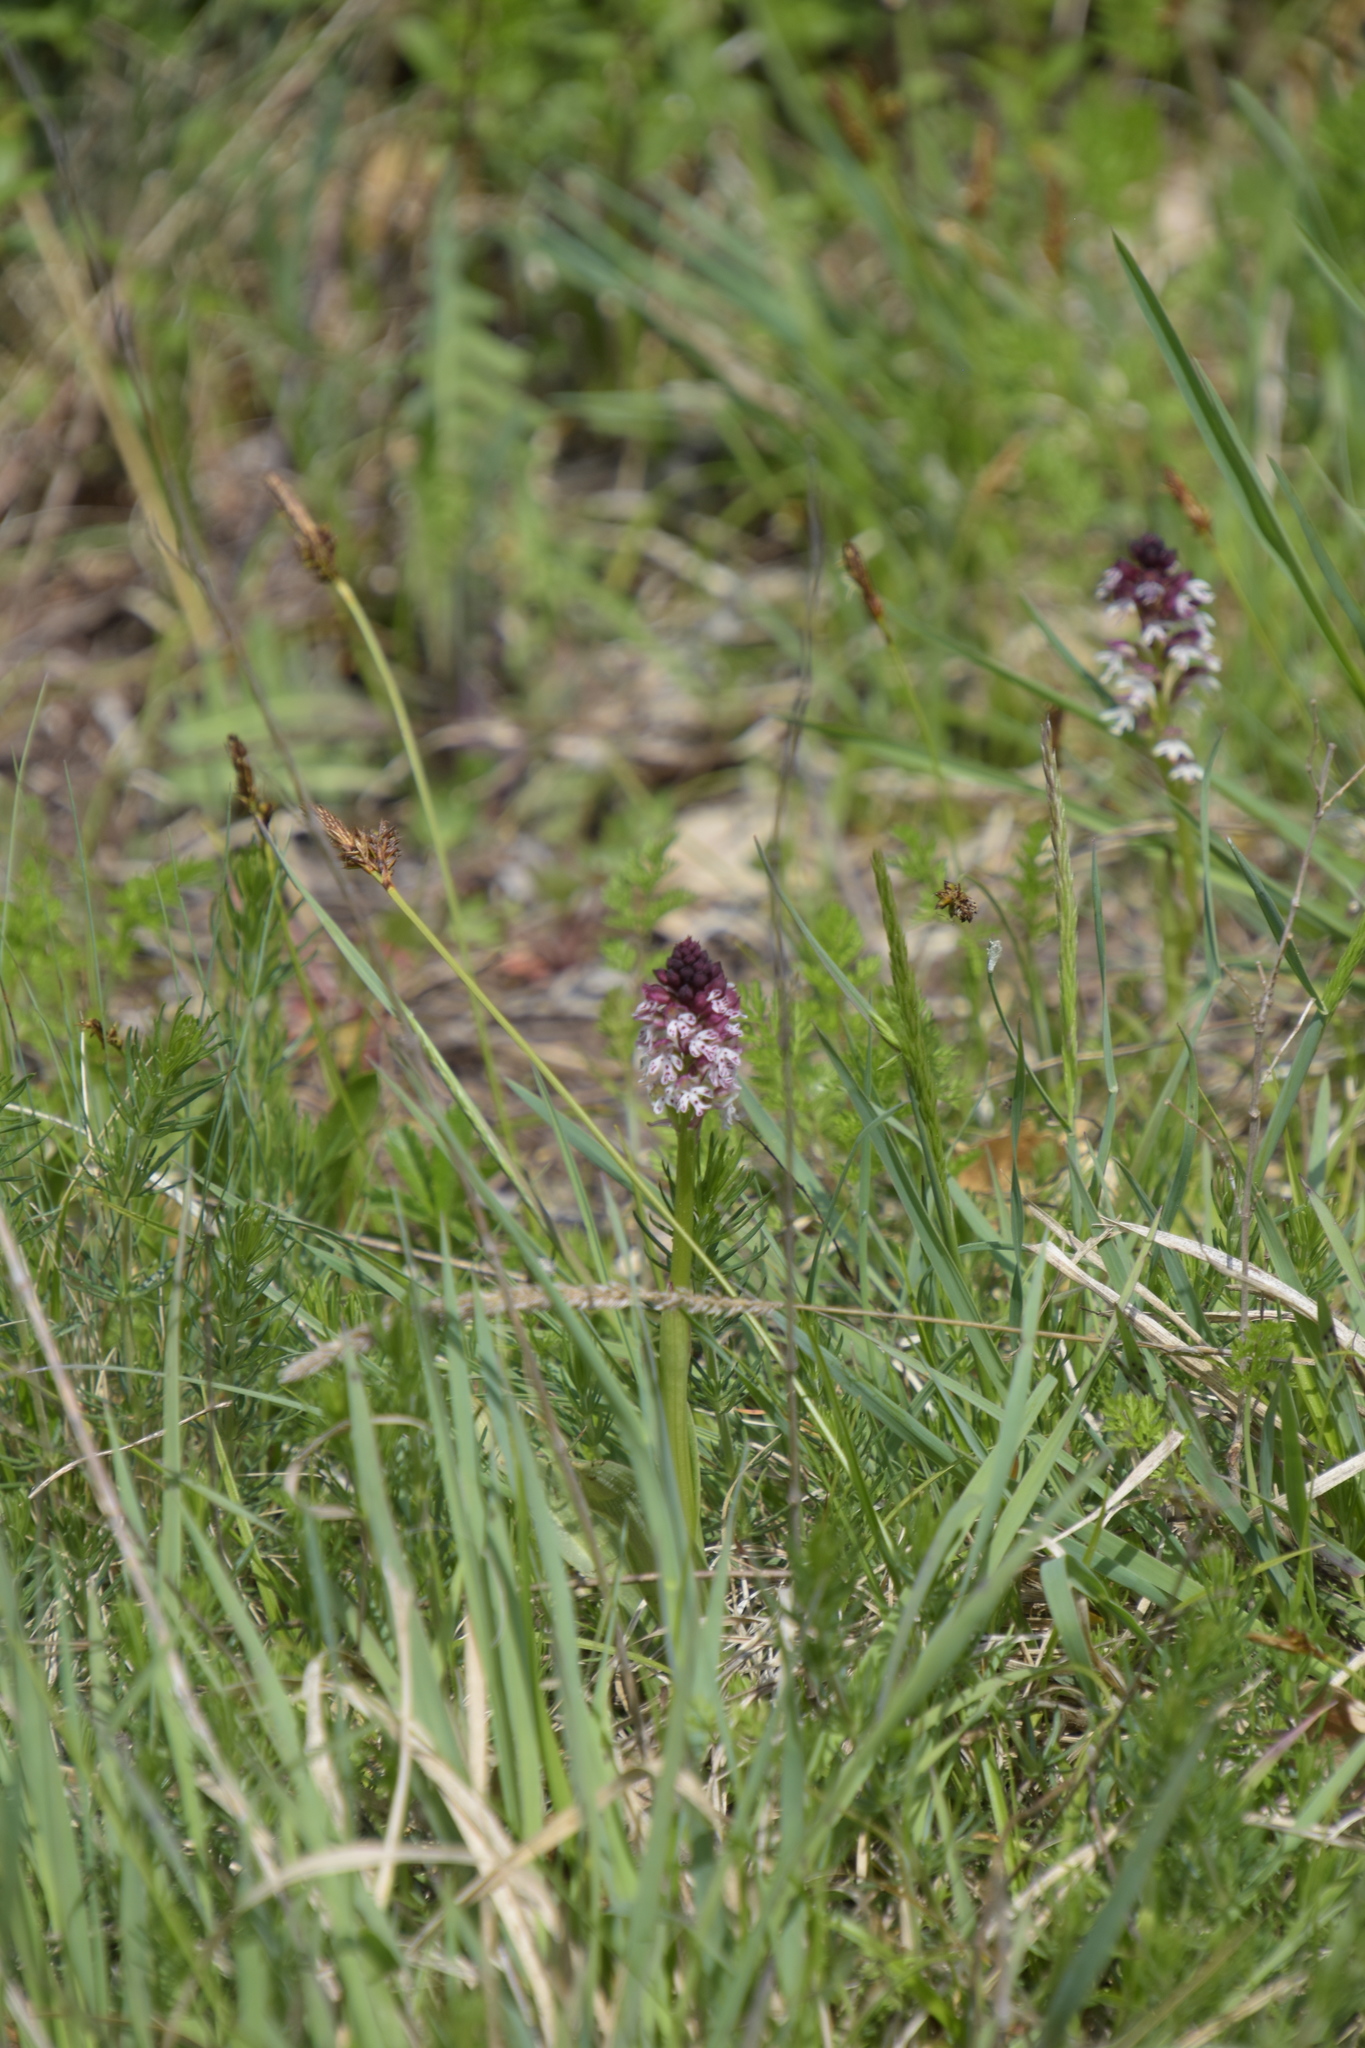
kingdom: Plantae
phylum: Tracheophyta
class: Liliopsida
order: Asparagales
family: Orchidaceae
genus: Neotinea
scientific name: Neotinea ustulata
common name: Burnt orchid
